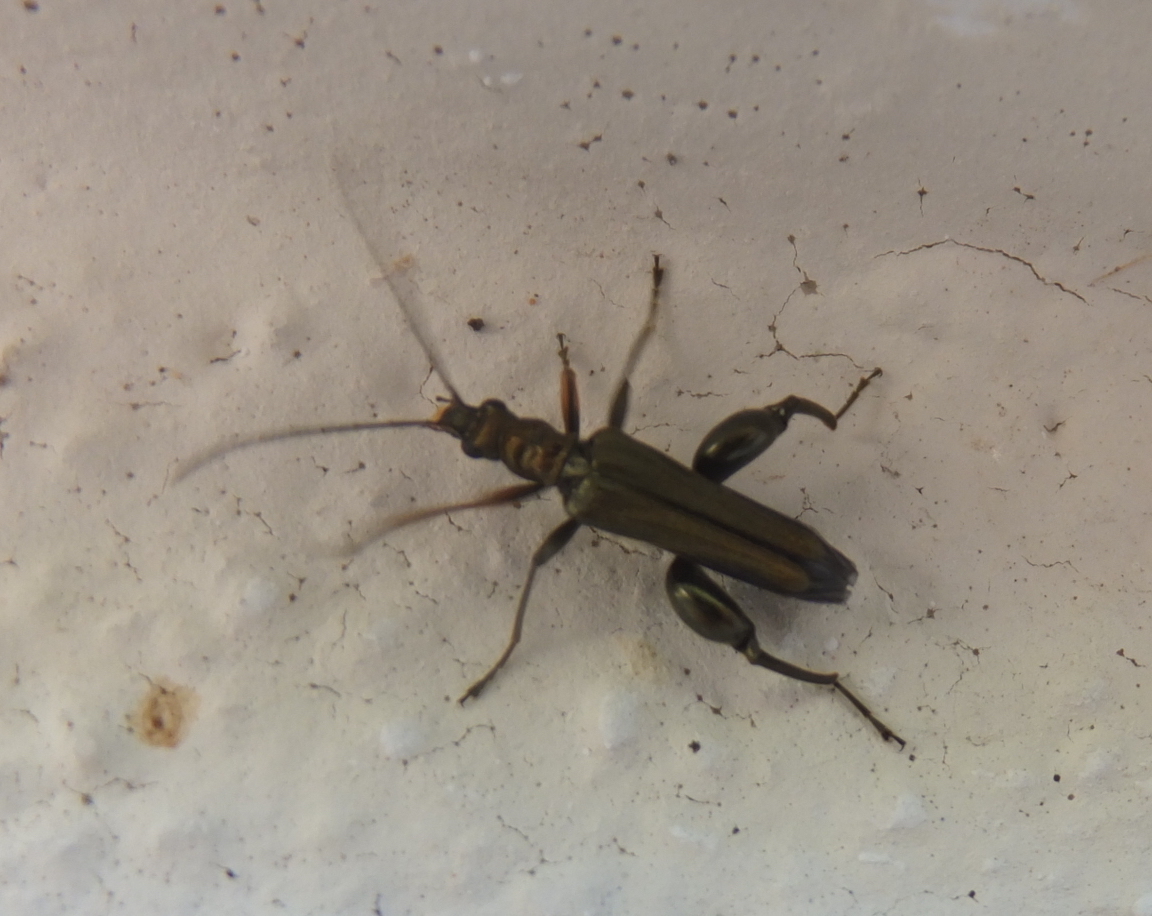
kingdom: Animalia
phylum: Arthropoda
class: Insecta
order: Coleoptera
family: Oedemeridae
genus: Oedemera
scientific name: Oedemera flavipes
